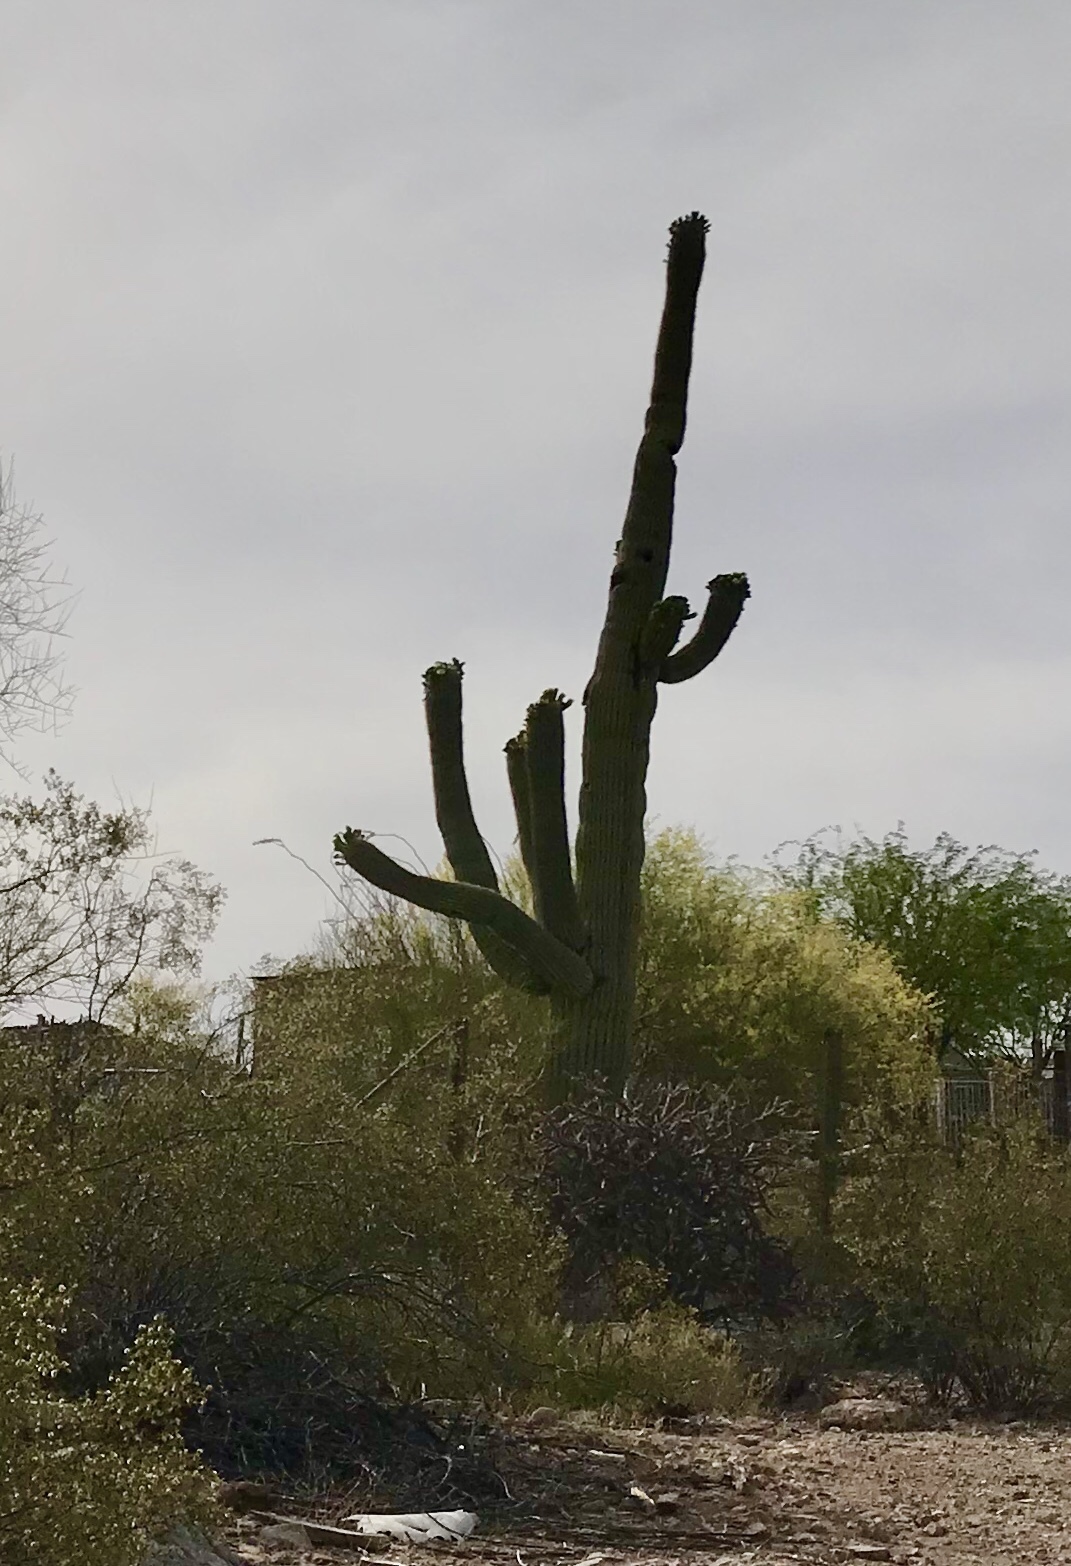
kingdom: Plantae
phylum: Tracheophyta
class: Magnoliopsida
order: Caryophyllales
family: Cactaceae
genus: Carnegiea
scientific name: Carnegiea gigantea
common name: Saguaro
